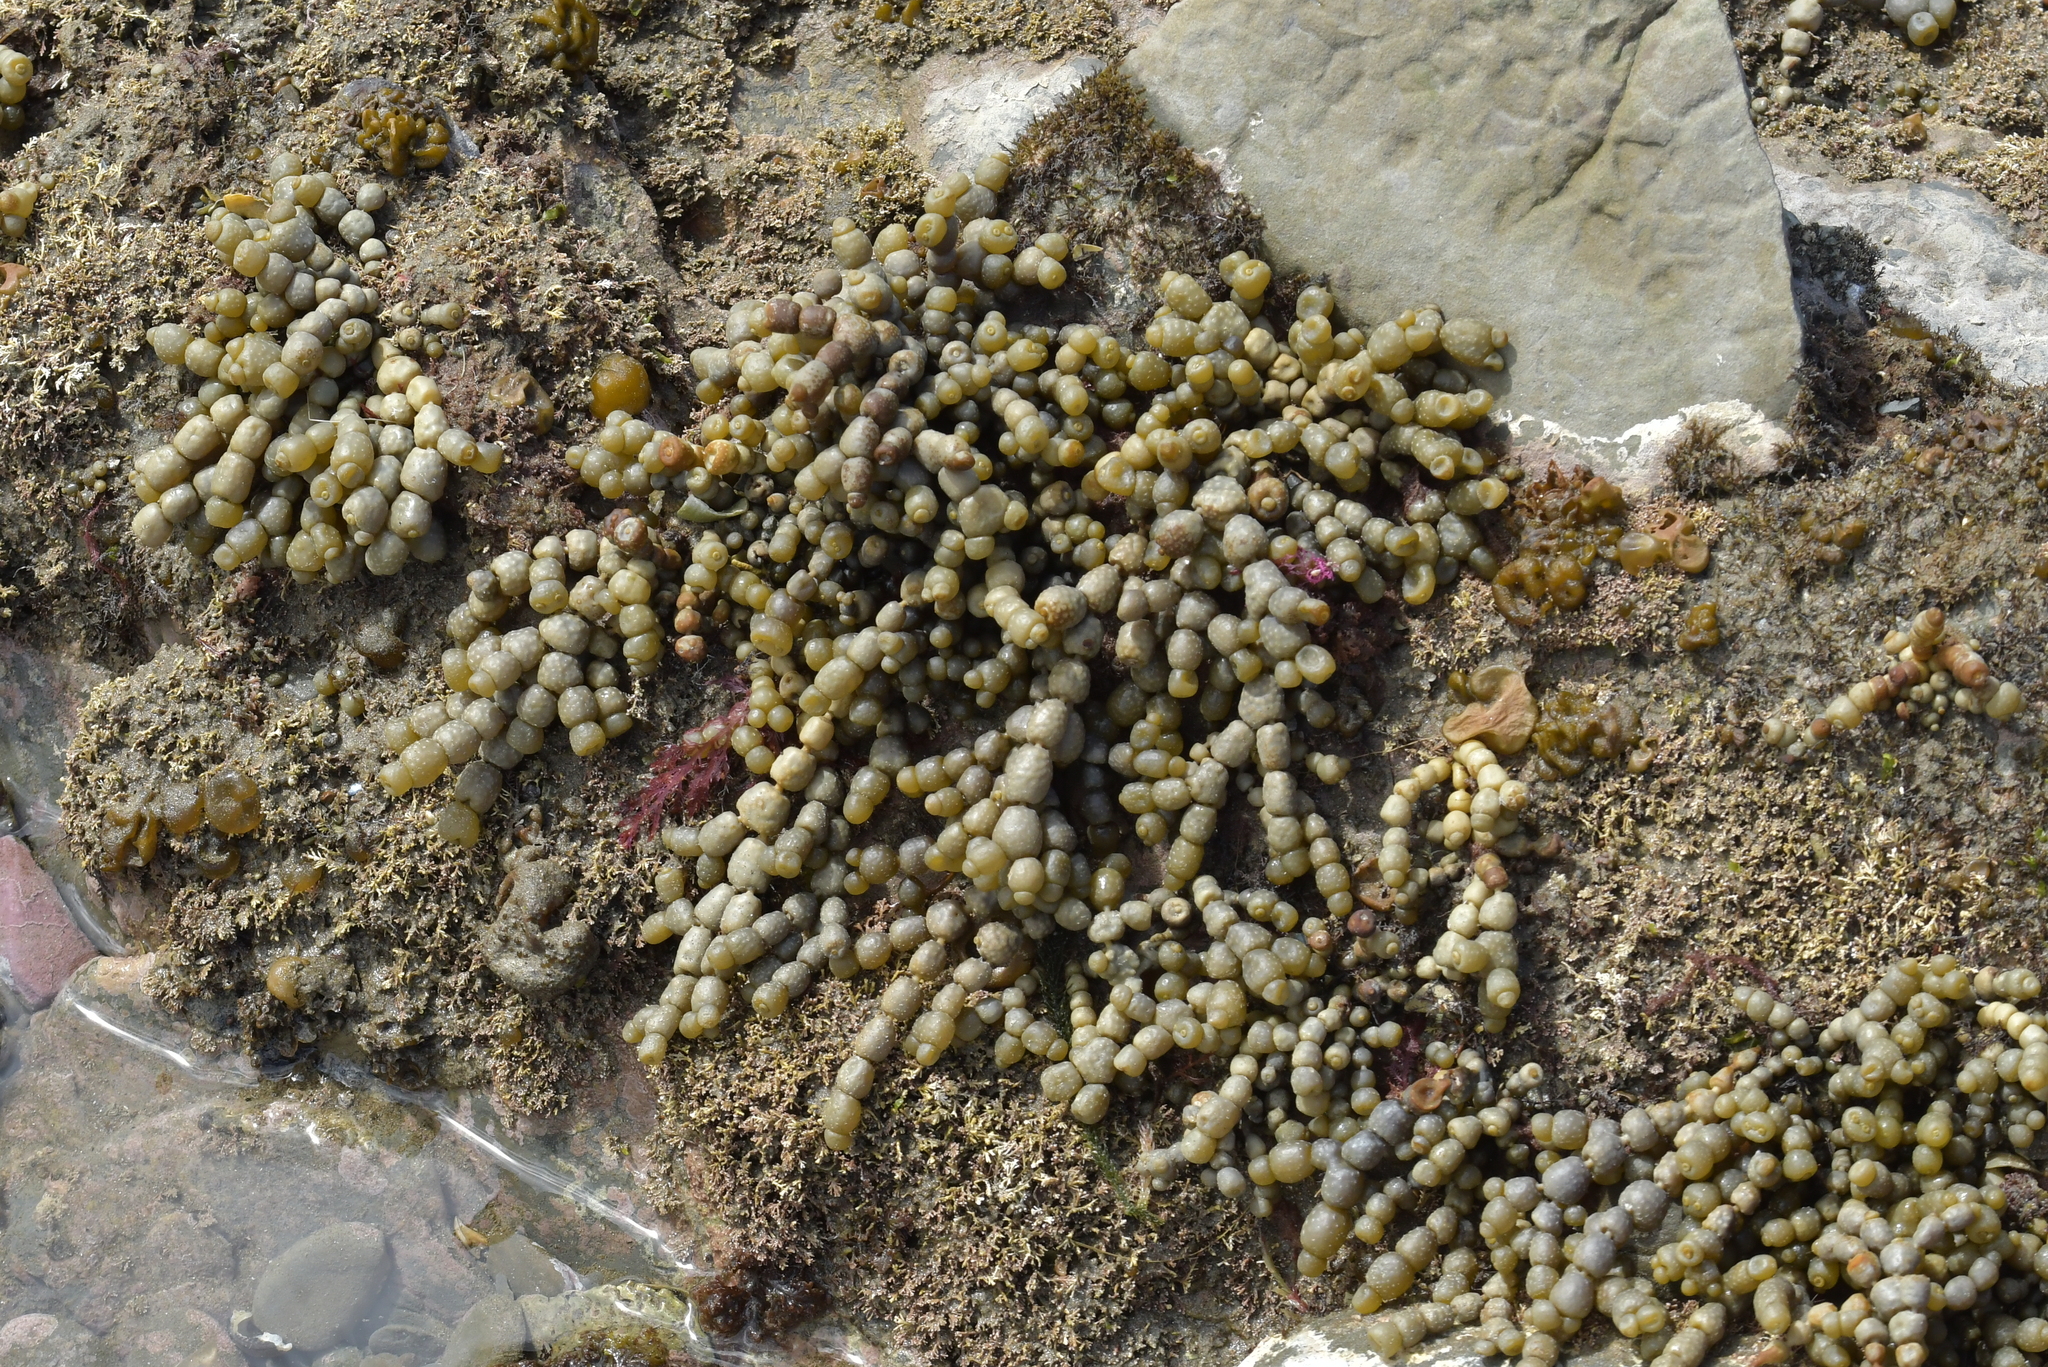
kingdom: Chromista
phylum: Ochrophyta
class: Phaeophyceae
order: Fucales
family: Hormosiraceae
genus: Hormosira
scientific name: Hormosira banksii
